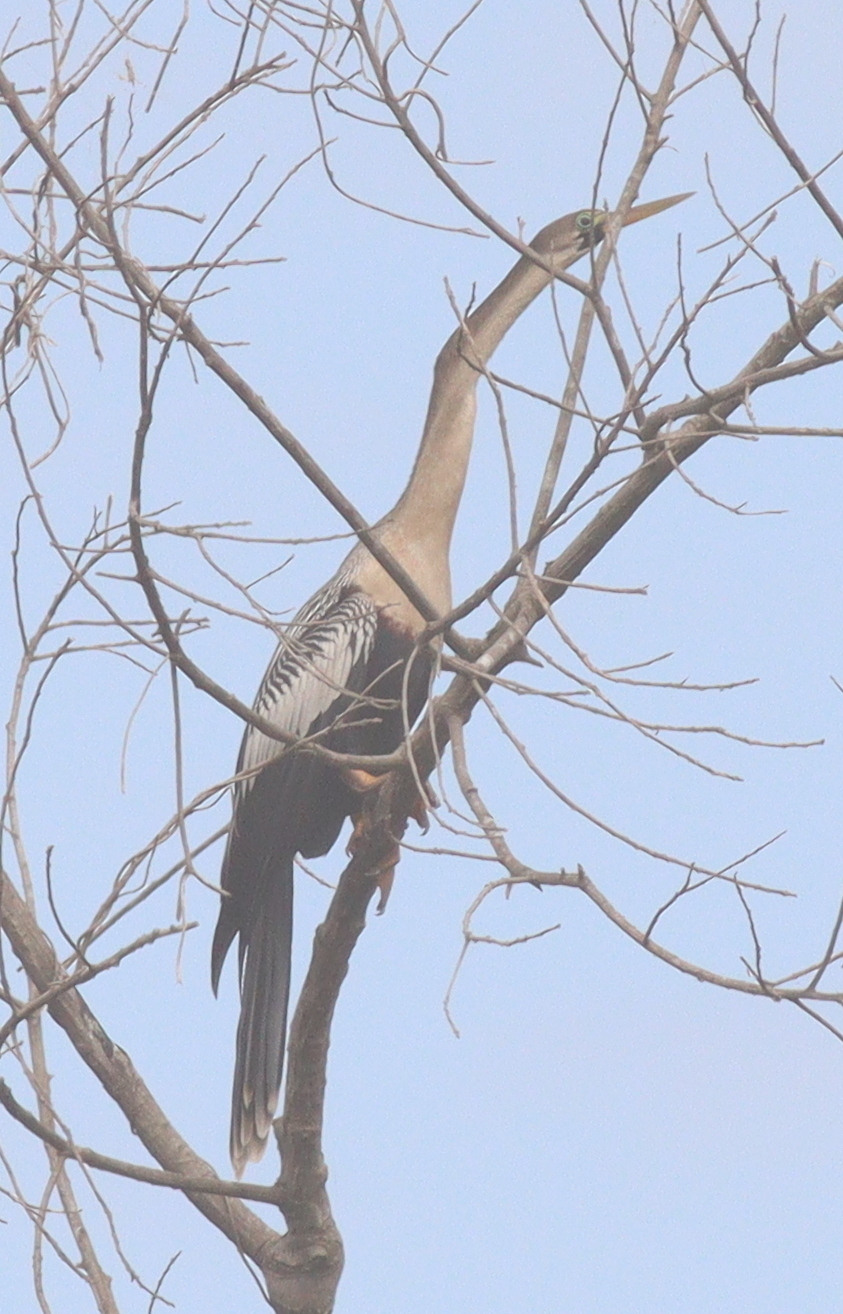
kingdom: Animalia
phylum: Chordata
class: Aves
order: Suliformes
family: Anhingidae
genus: Anhinga
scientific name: Anhinga anhinga
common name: Anhinga
